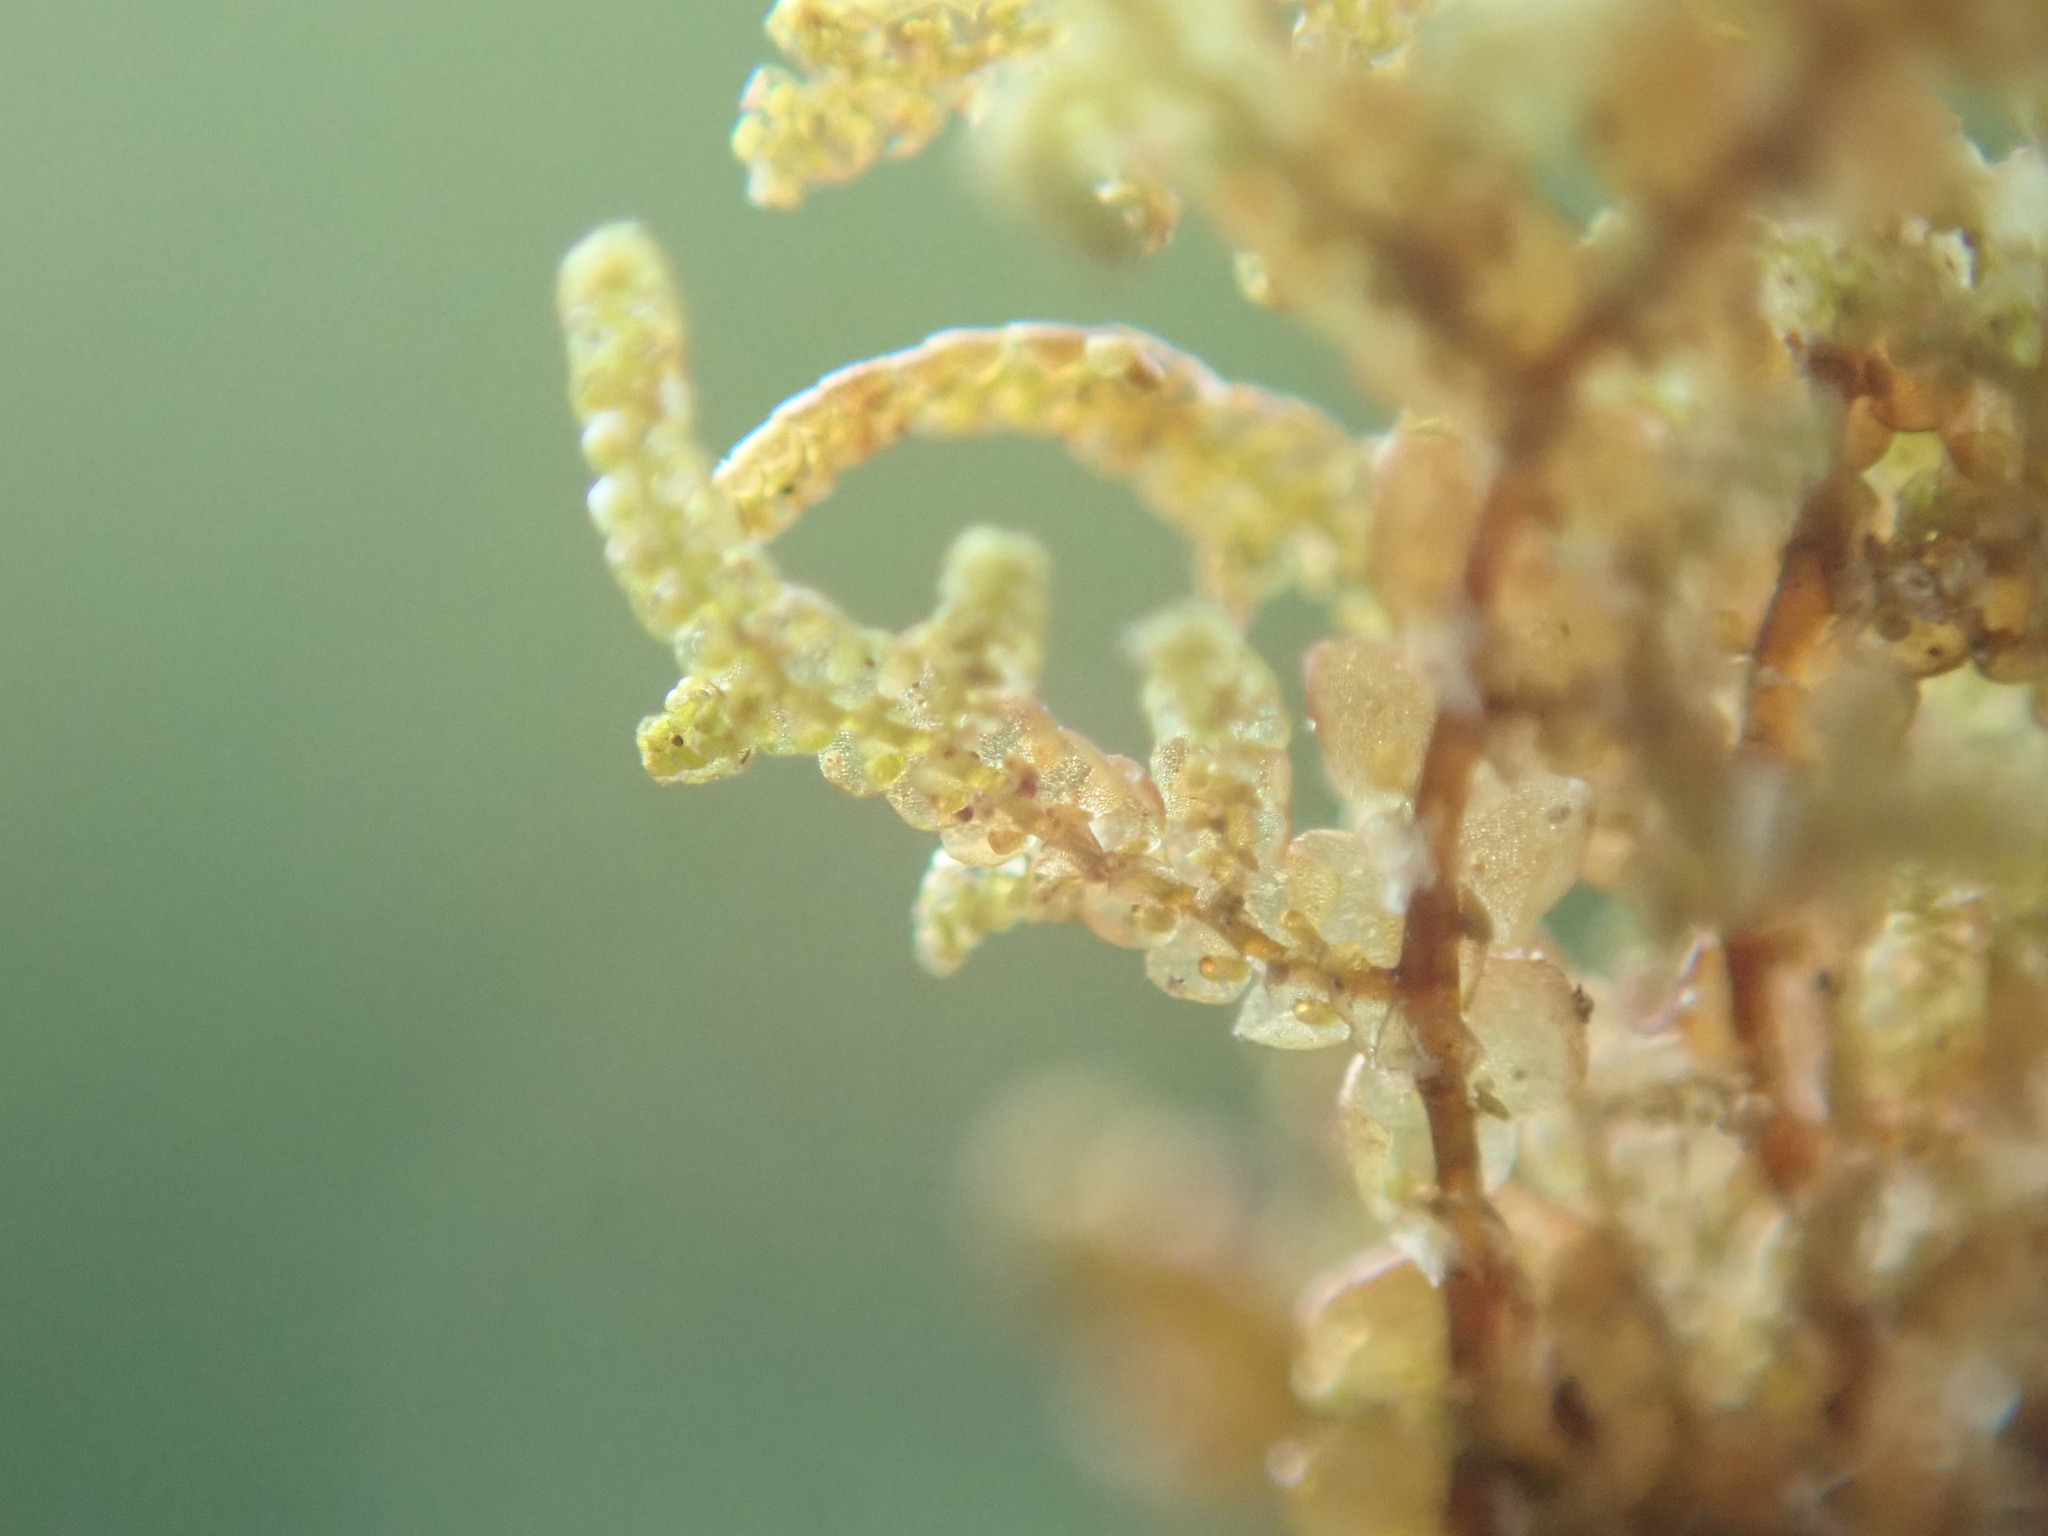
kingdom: Plantae
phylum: Marchantiophyta
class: Jungermanniopsida
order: Porellales
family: Frullaniaceae
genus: Frullania
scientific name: Frullania nisquallensis
